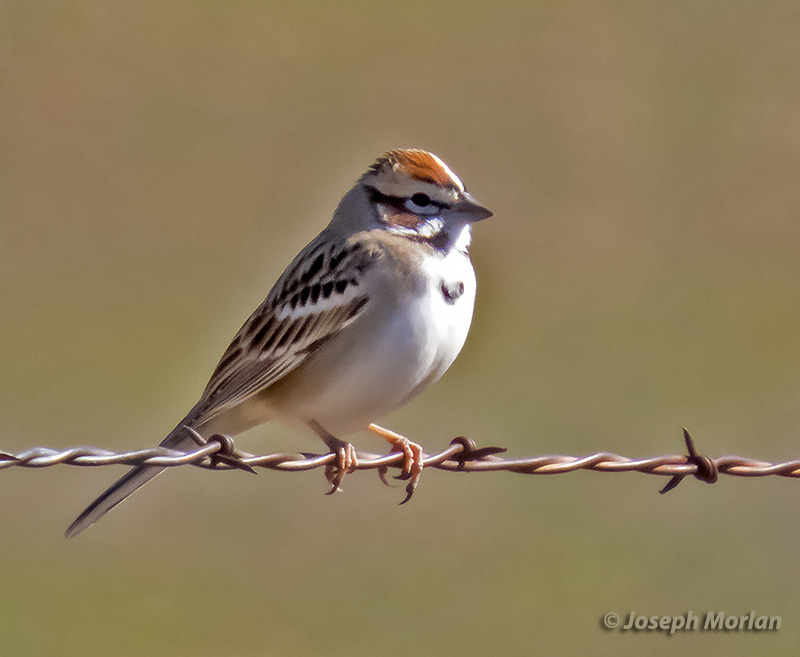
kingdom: Animalia
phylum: Chordata
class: Aves
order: Passeriformes
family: Passerellidae
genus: Chondestes
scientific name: Chondestes grammacus
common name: Lark sparrow
